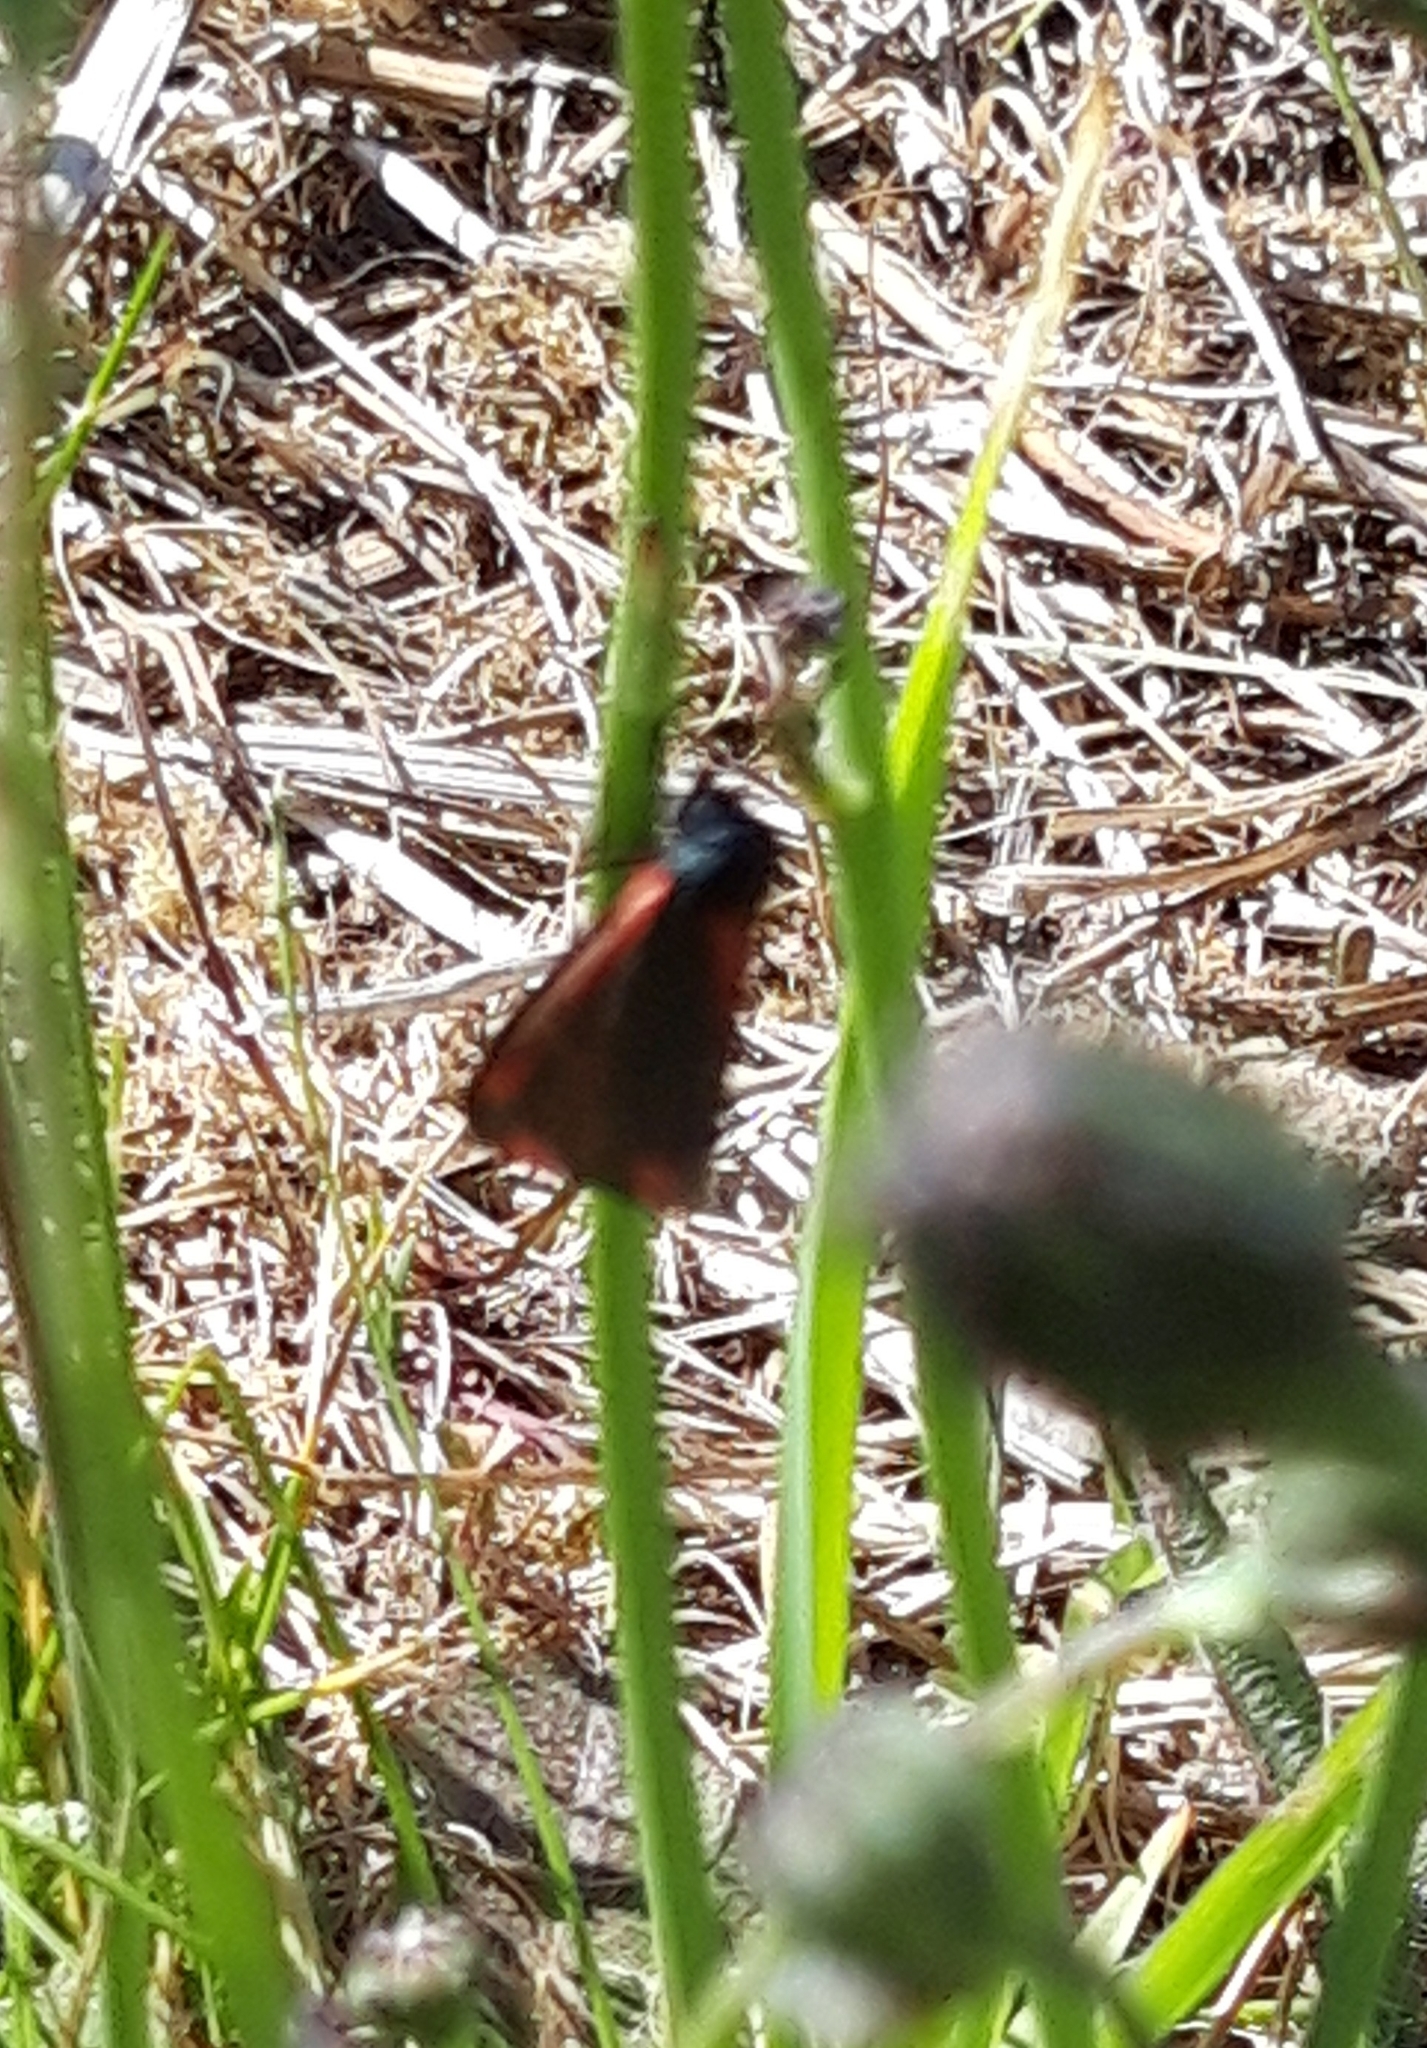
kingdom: Animalia
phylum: Arthropoda
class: Insecta
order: Lepidoptera
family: Erebidae
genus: Tyria
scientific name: Tyria jacobaeae
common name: Cinnabar
